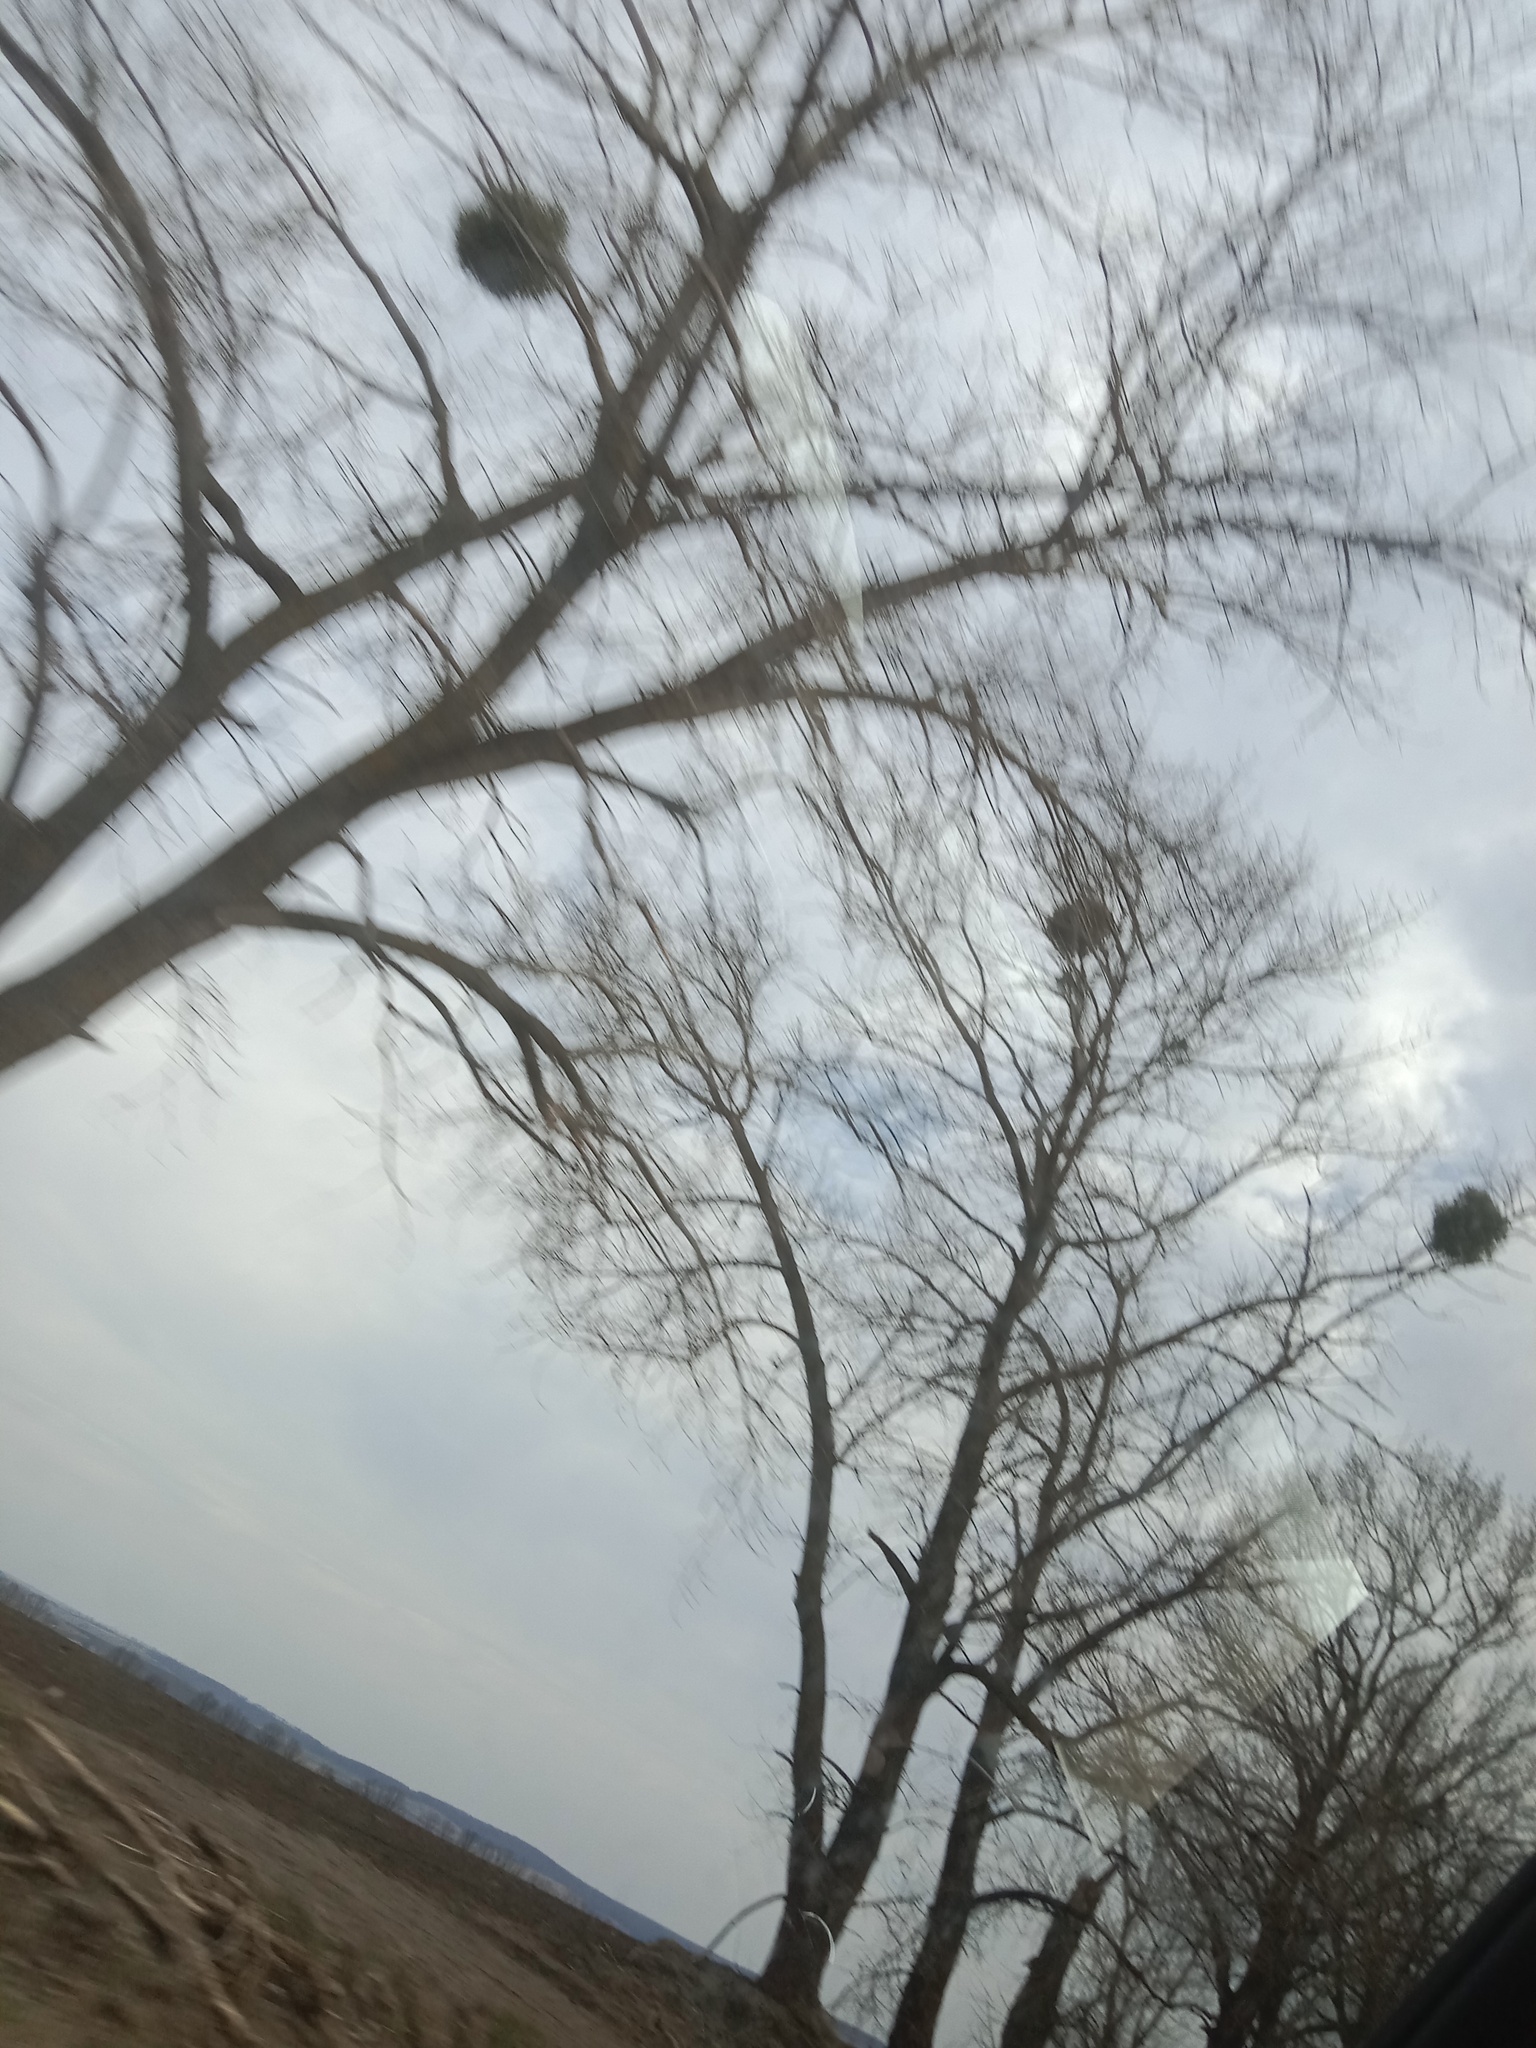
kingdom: Plantae
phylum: Tracheophyta
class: Magnoliopsida
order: Santalales
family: Viscaceae
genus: Viscum
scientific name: Viscum album
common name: Mistletoe
